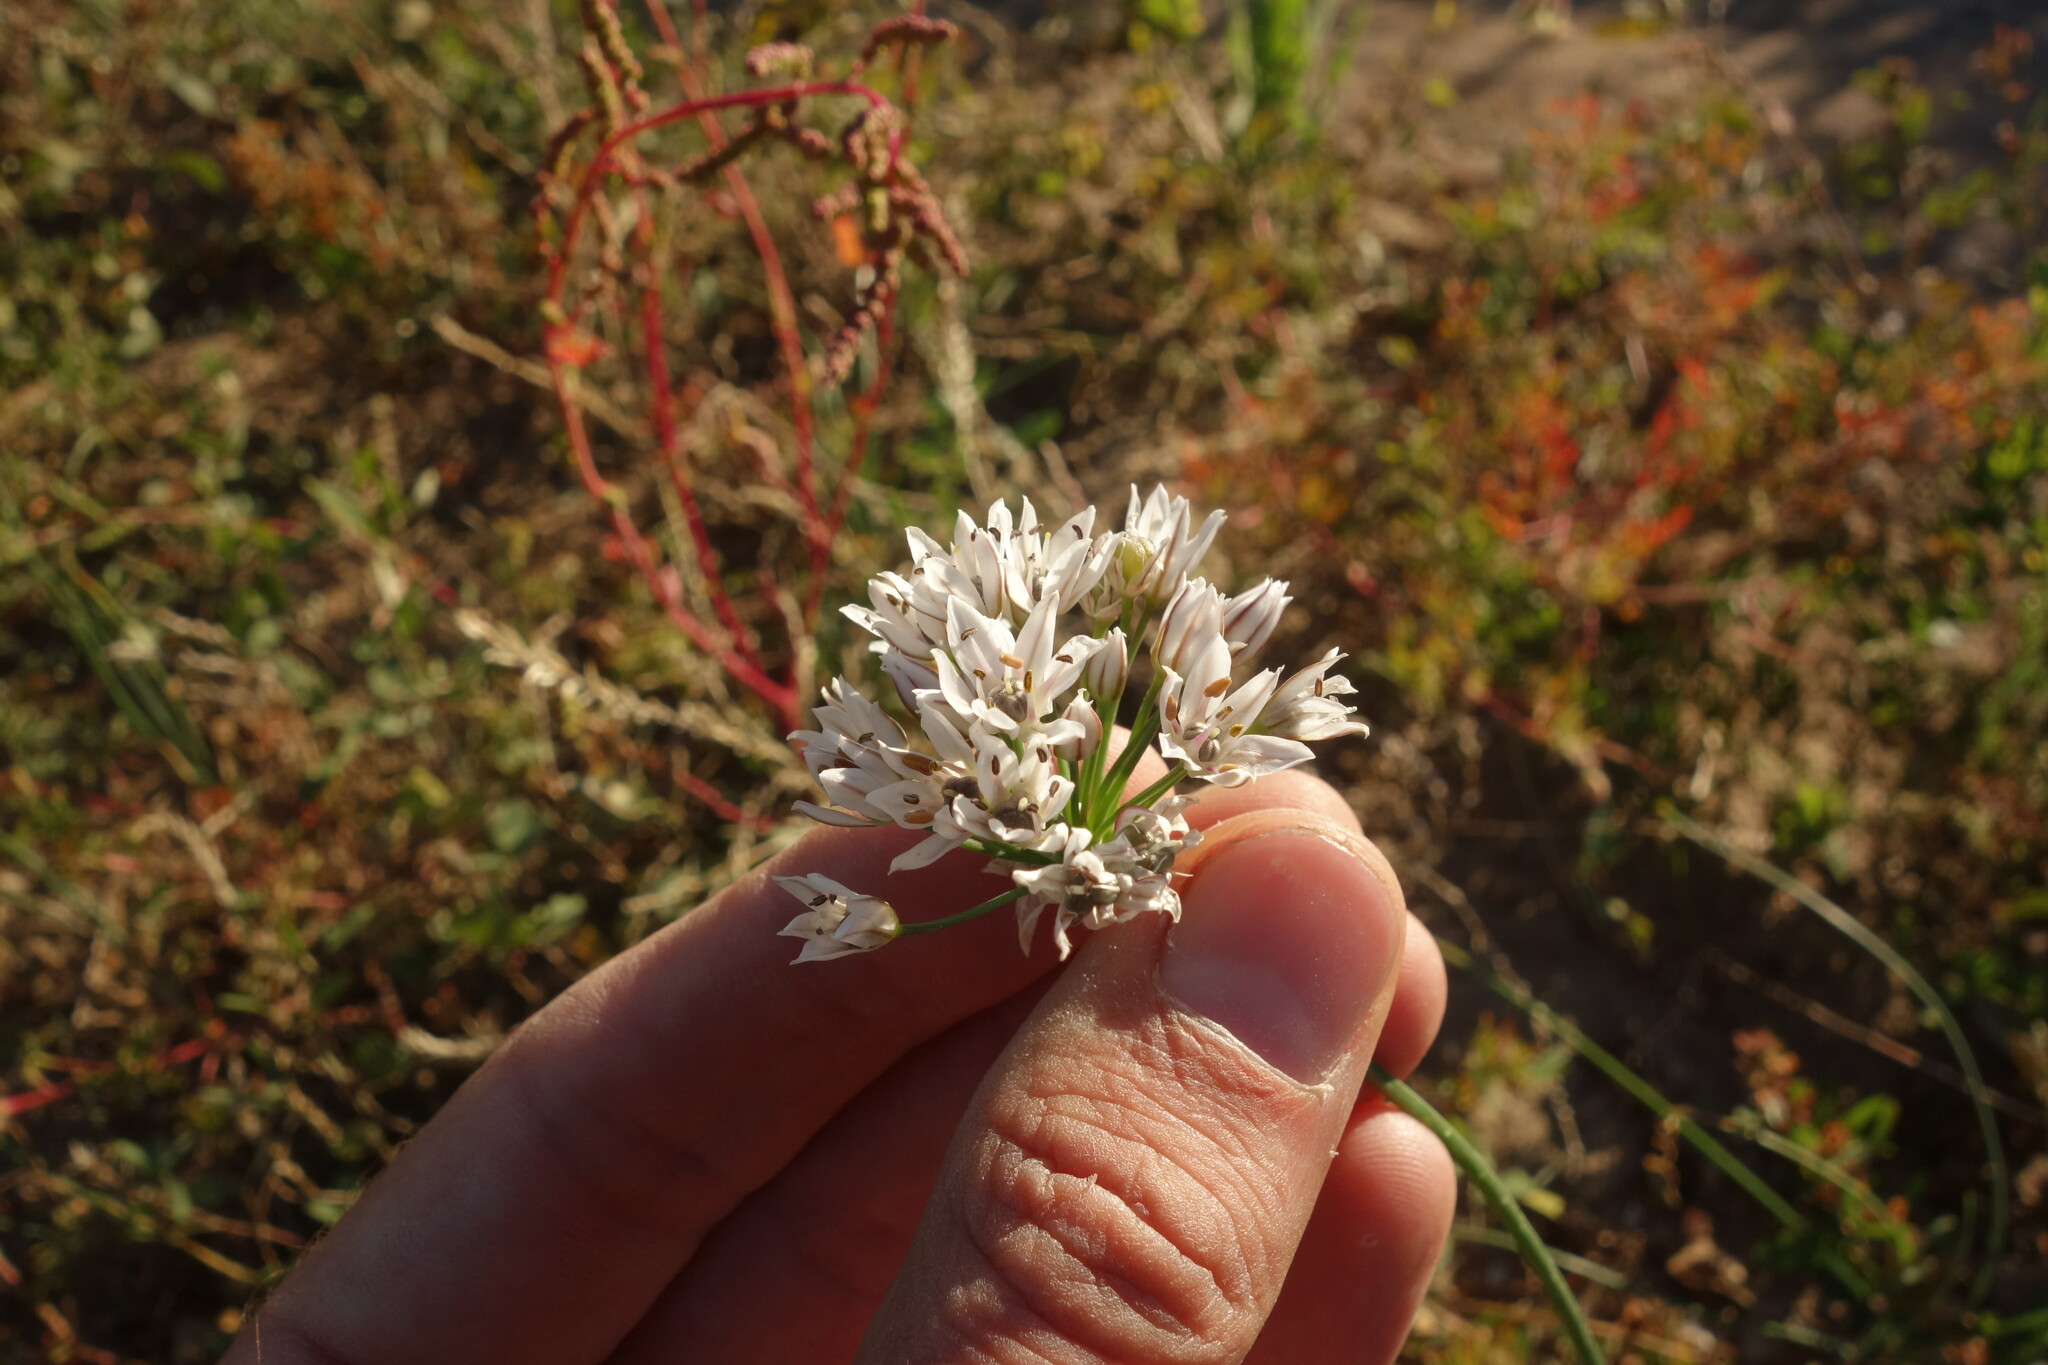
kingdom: Plantae
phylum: Tracheophyta
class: Liliopsida
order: Asparagales
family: Amaryllidaceae
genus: Allium
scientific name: Allium ramosum
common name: Fragrant garlic
